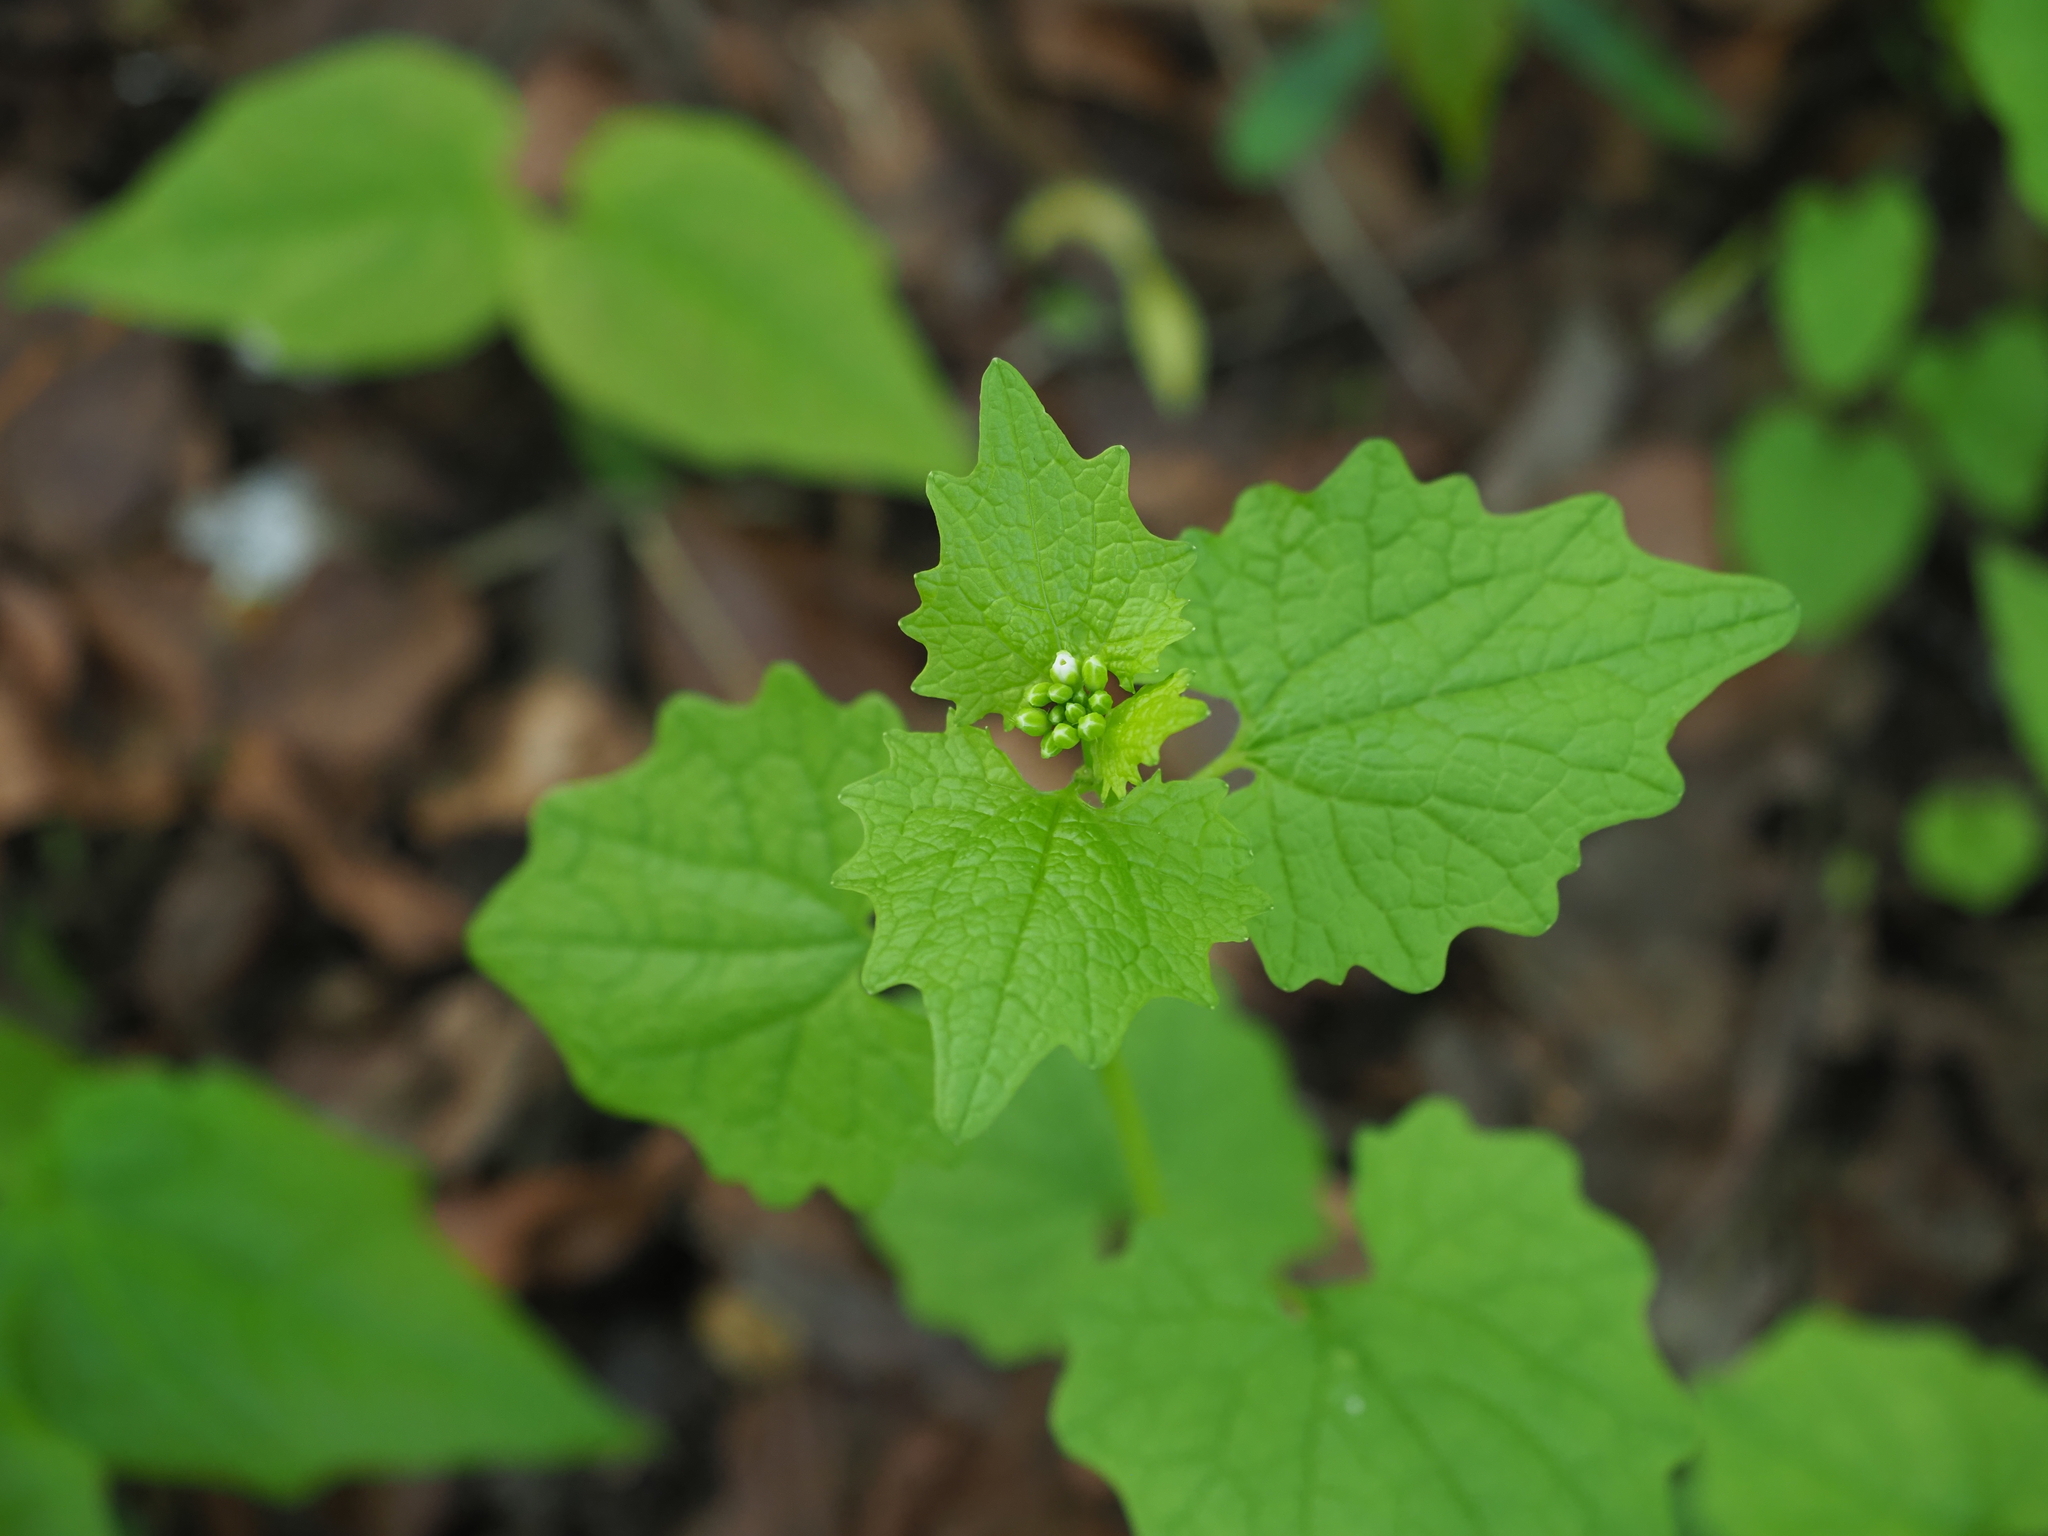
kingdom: Plantae
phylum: Tracheophyta
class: Magnoliopsida
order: Brassicales
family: Brassicaceae
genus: Alliaria
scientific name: Alliaria petiolata
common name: Garlic mustard
